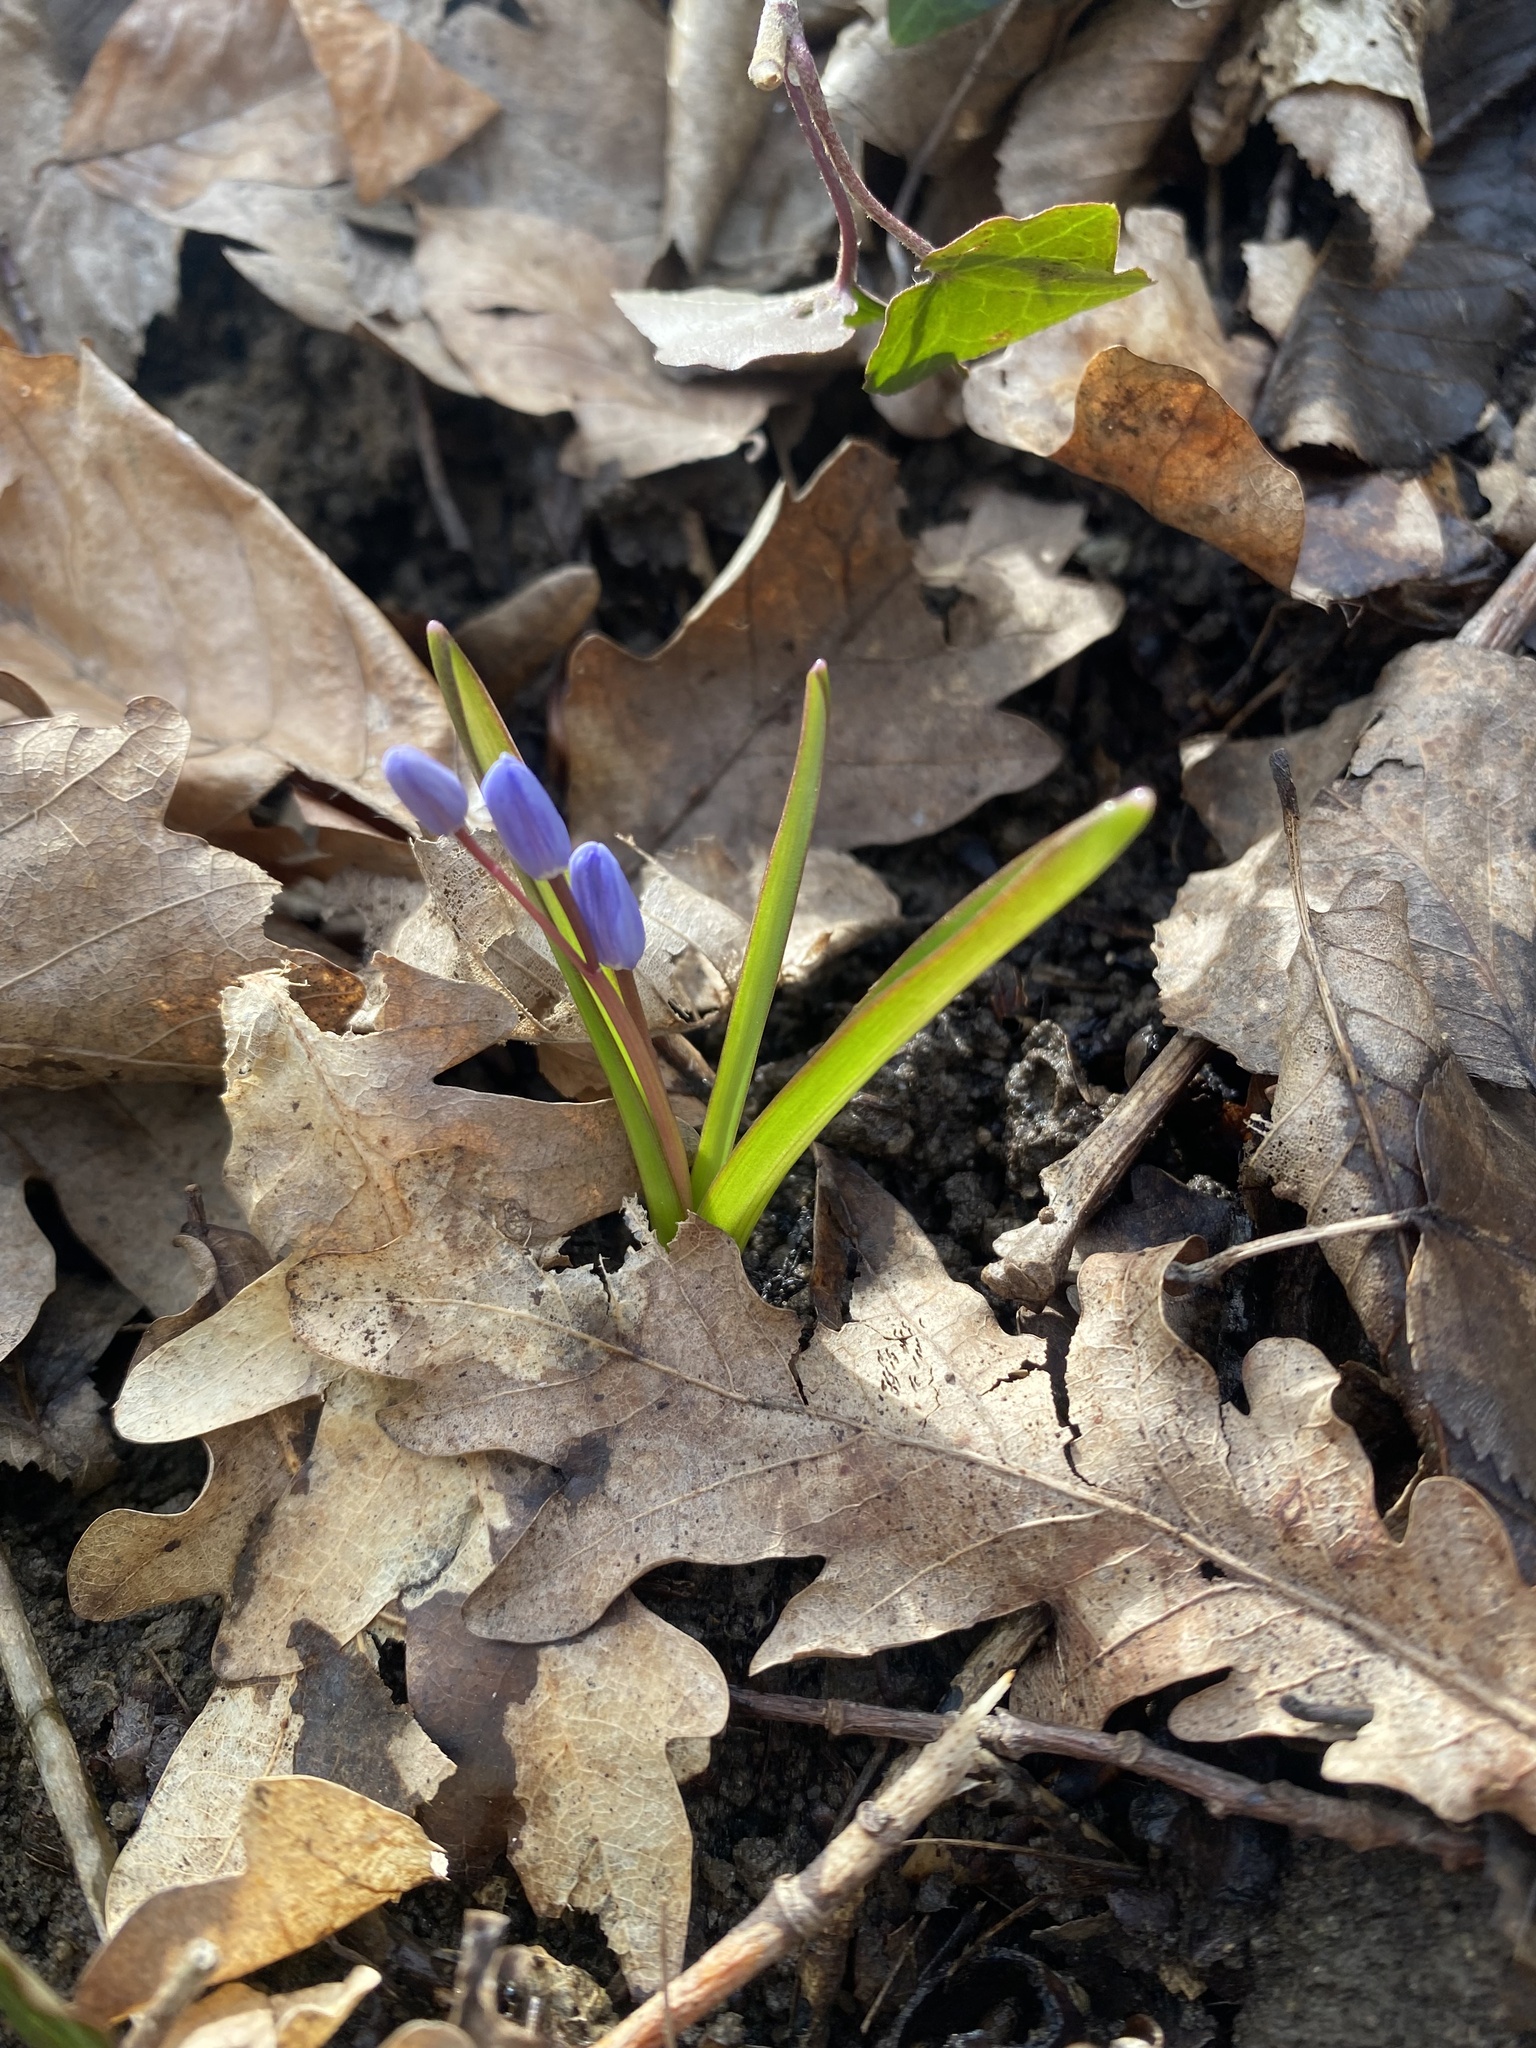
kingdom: Plantae
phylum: Tracheophyta
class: Liliopsida
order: Asparagales
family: Asparagaceae
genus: Scilla
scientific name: Scilla bifolia
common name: Alpine squill
